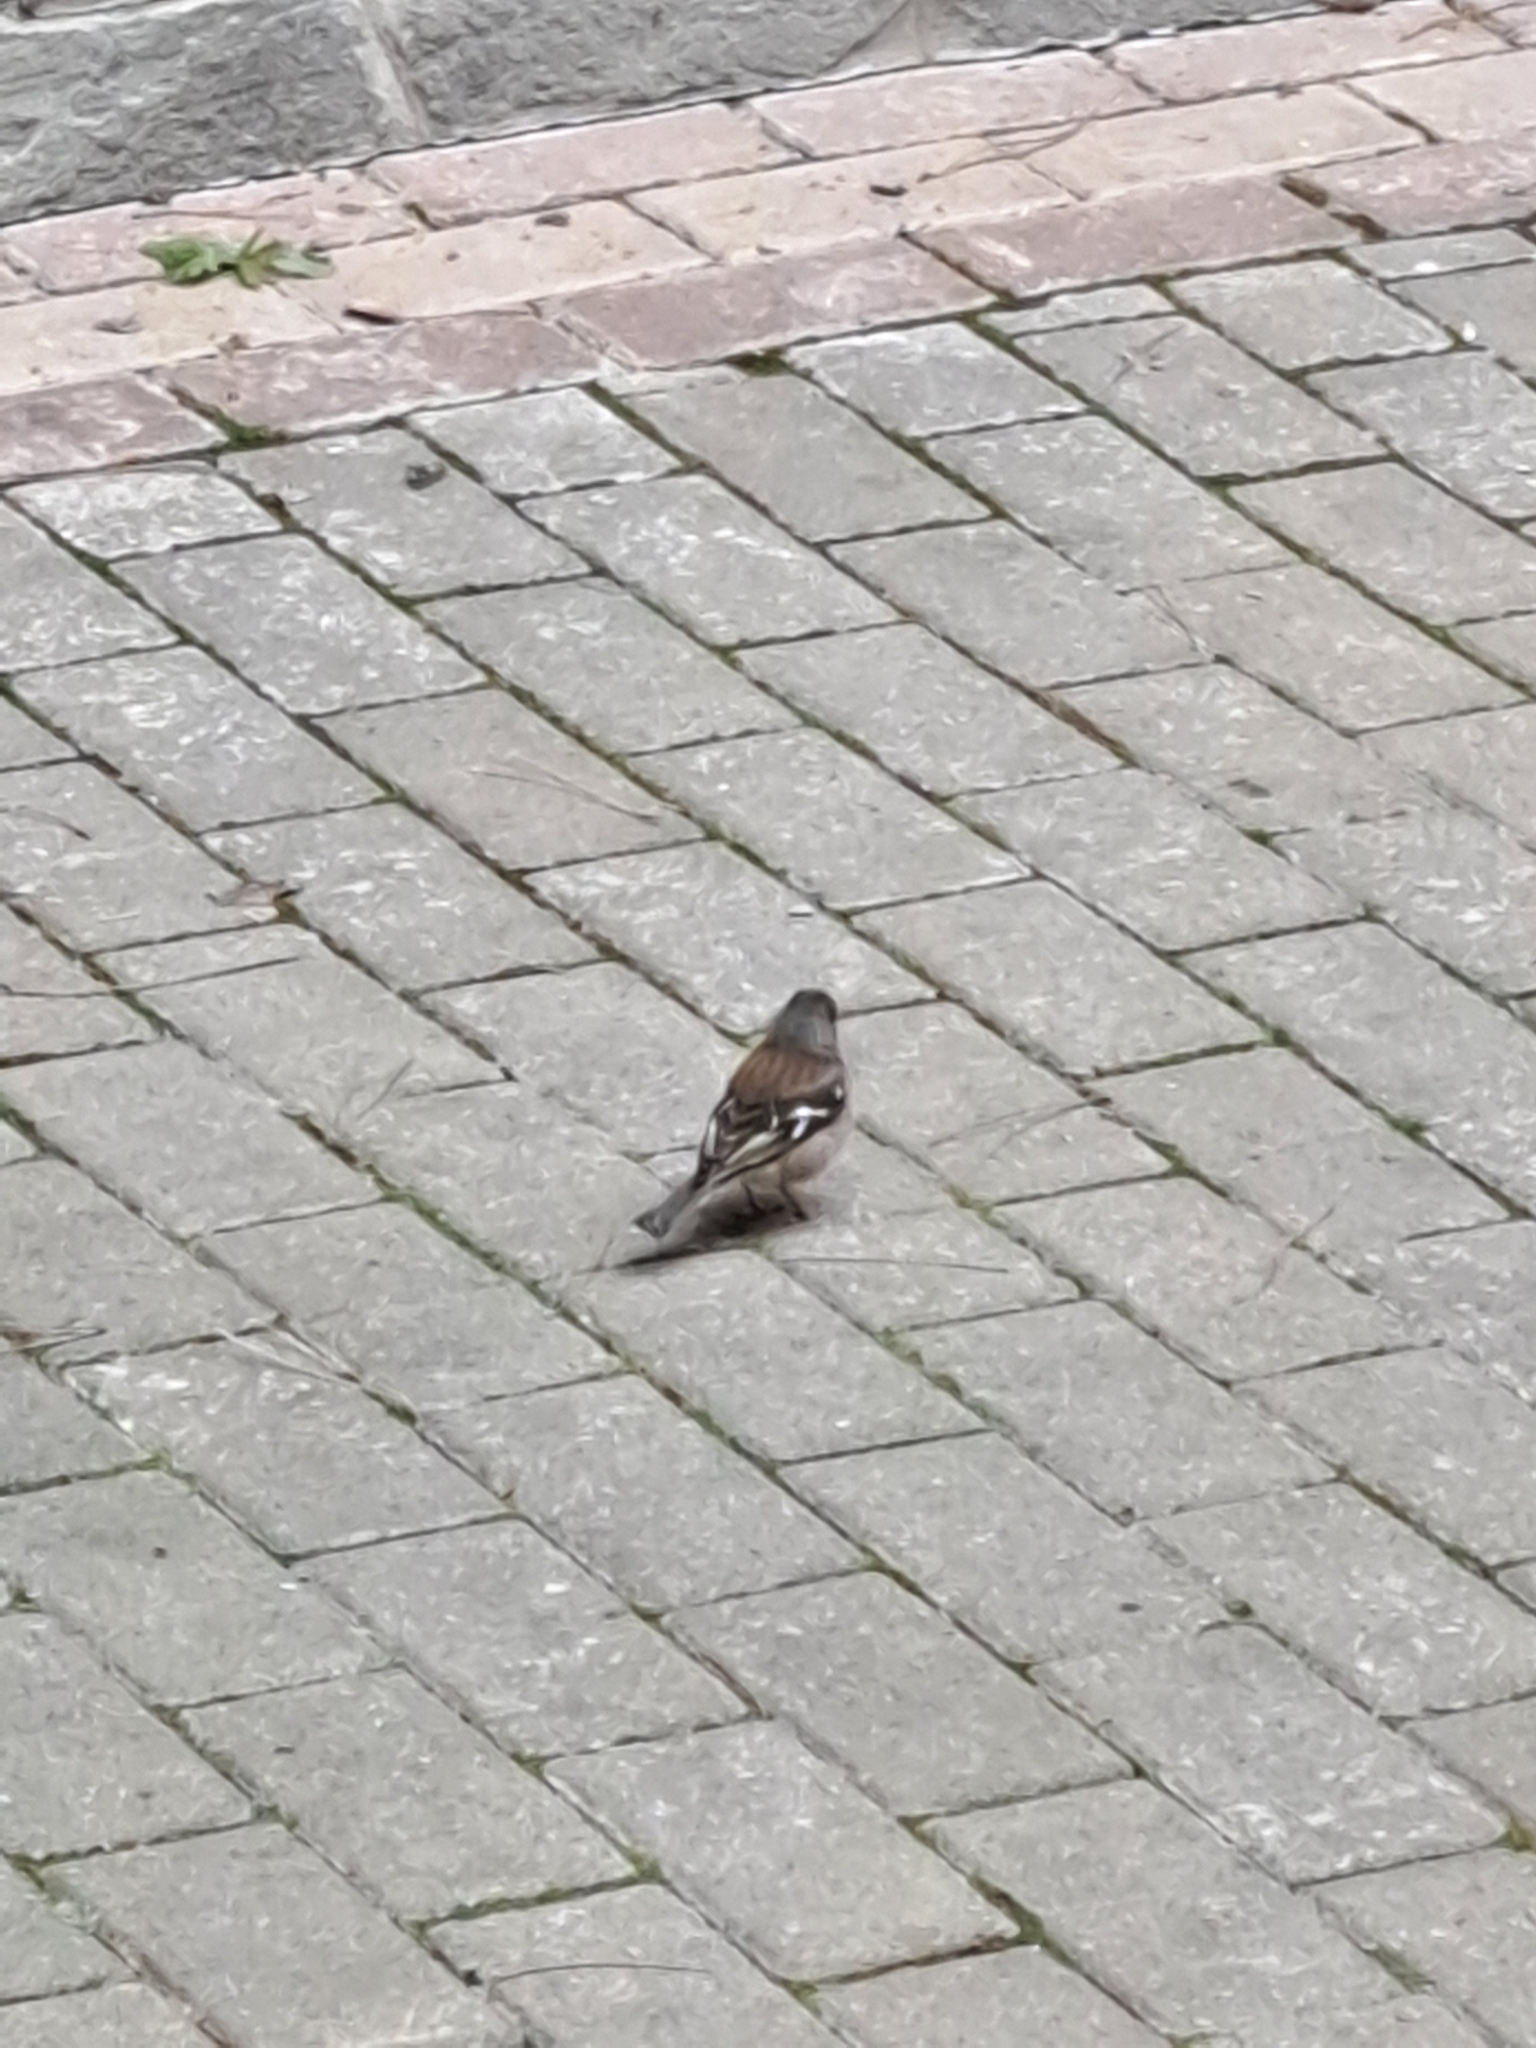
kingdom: Animalia
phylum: Chordata
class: Aves
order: Passeriformes
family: Fringillidae
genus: Fringilla
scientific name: Fringilla coelebs
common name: Common chaffinch
